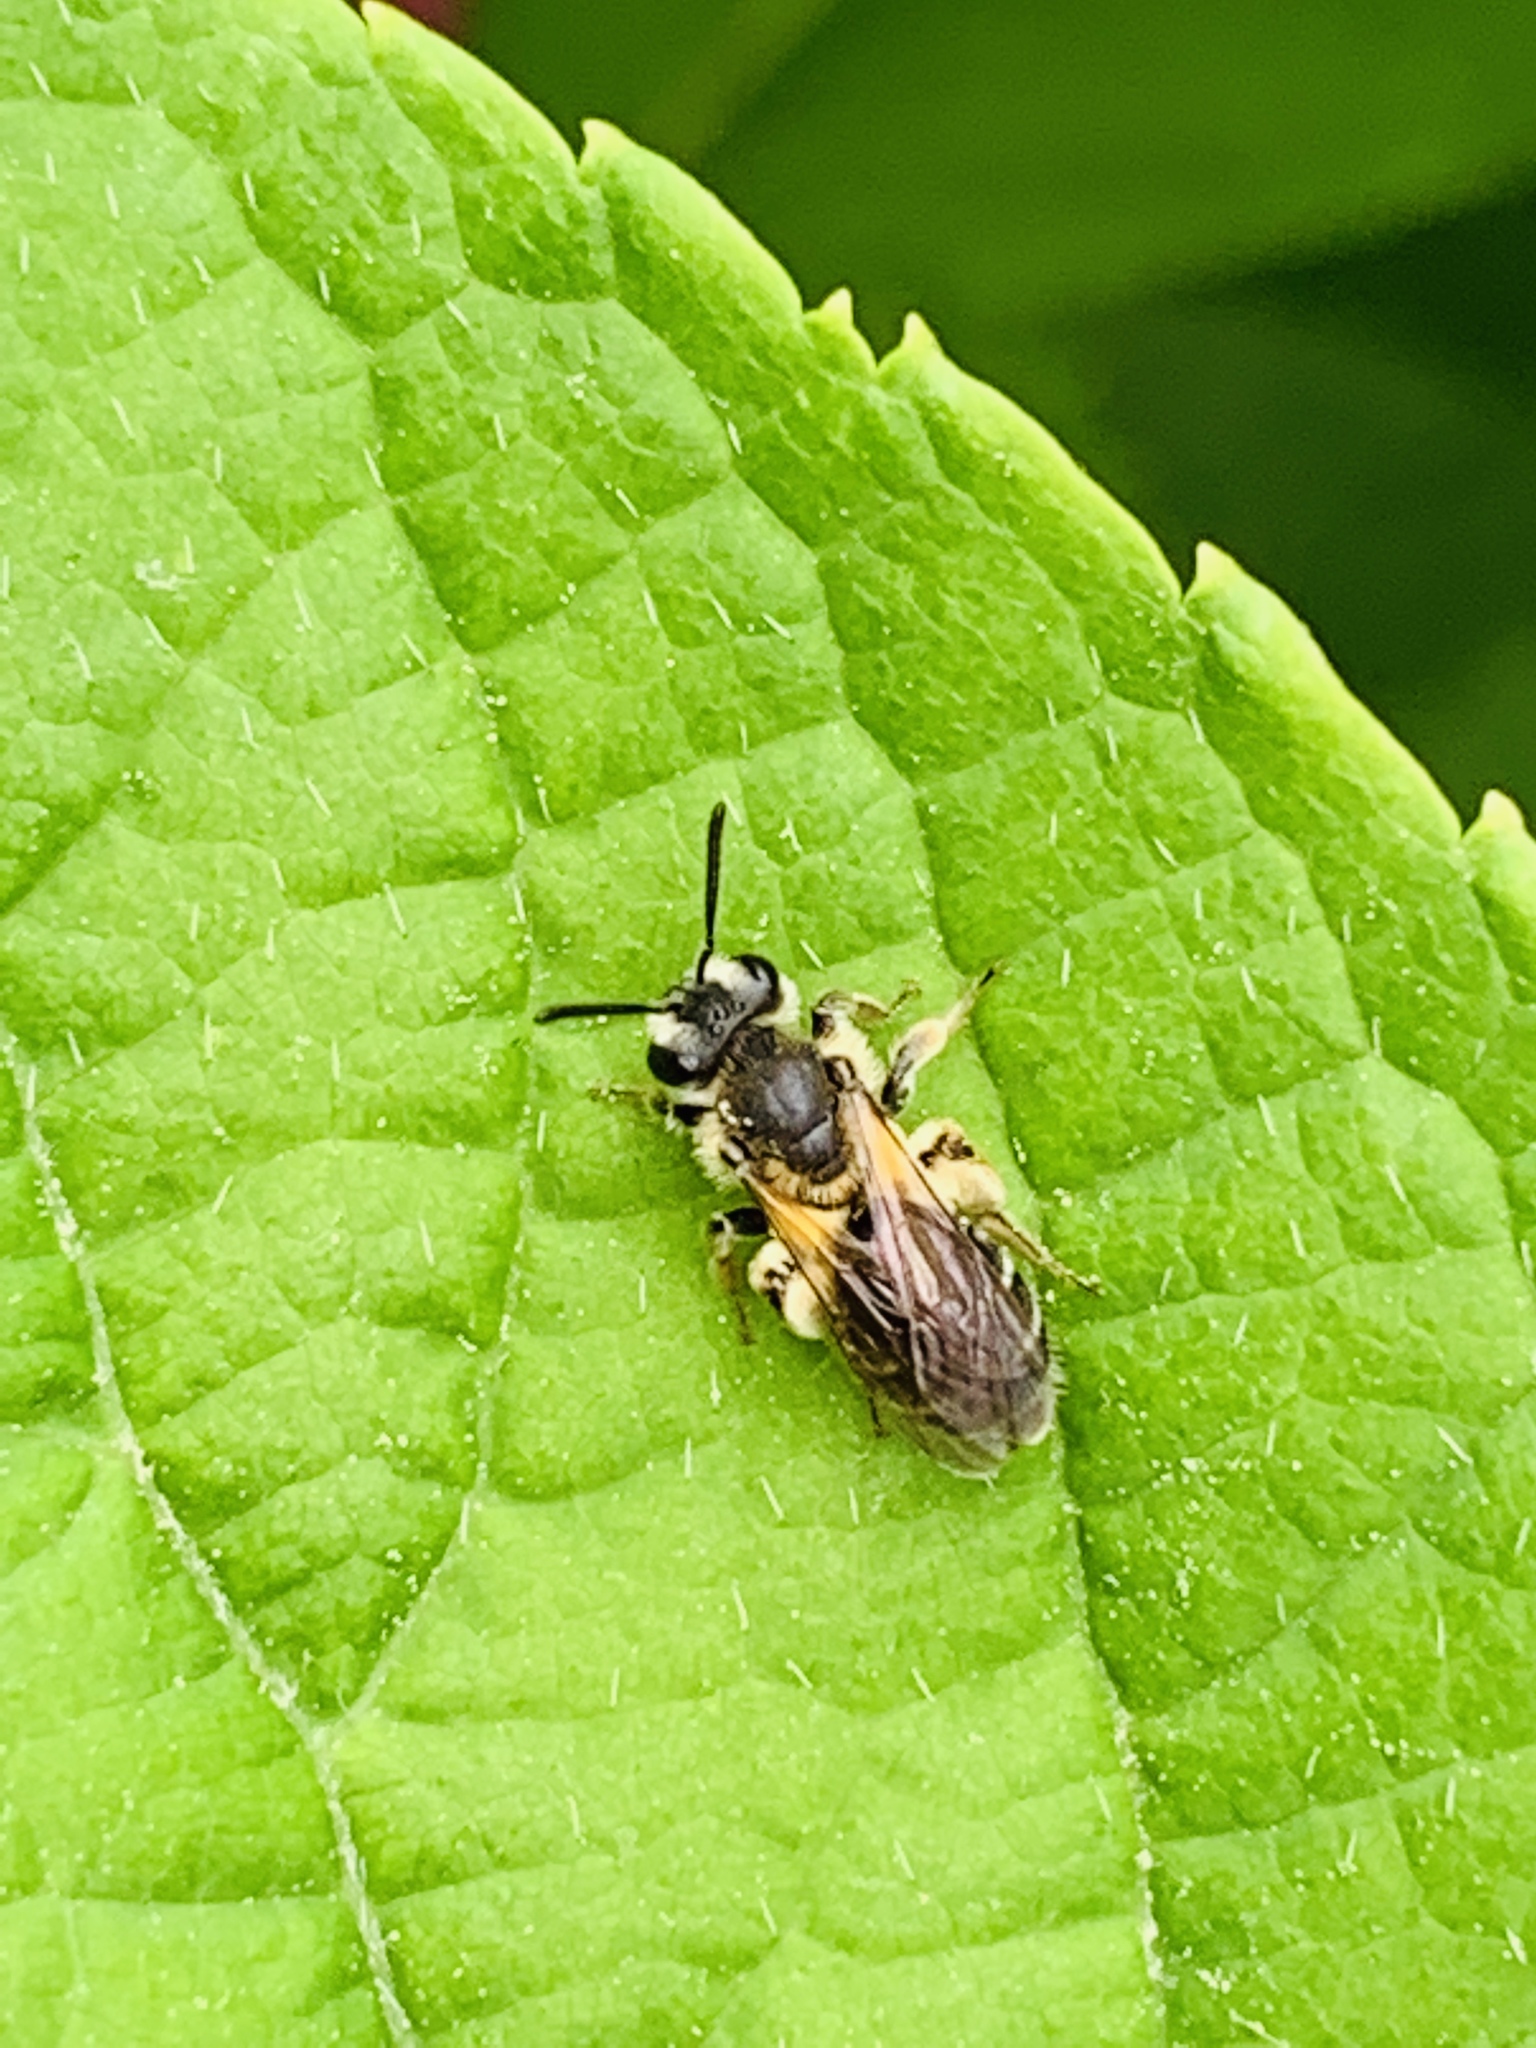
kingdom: Animalia
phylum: Arthropoda
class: Insecta
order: Hymenoptera
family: Andrenidae
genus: Andrena
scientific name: Andrena
